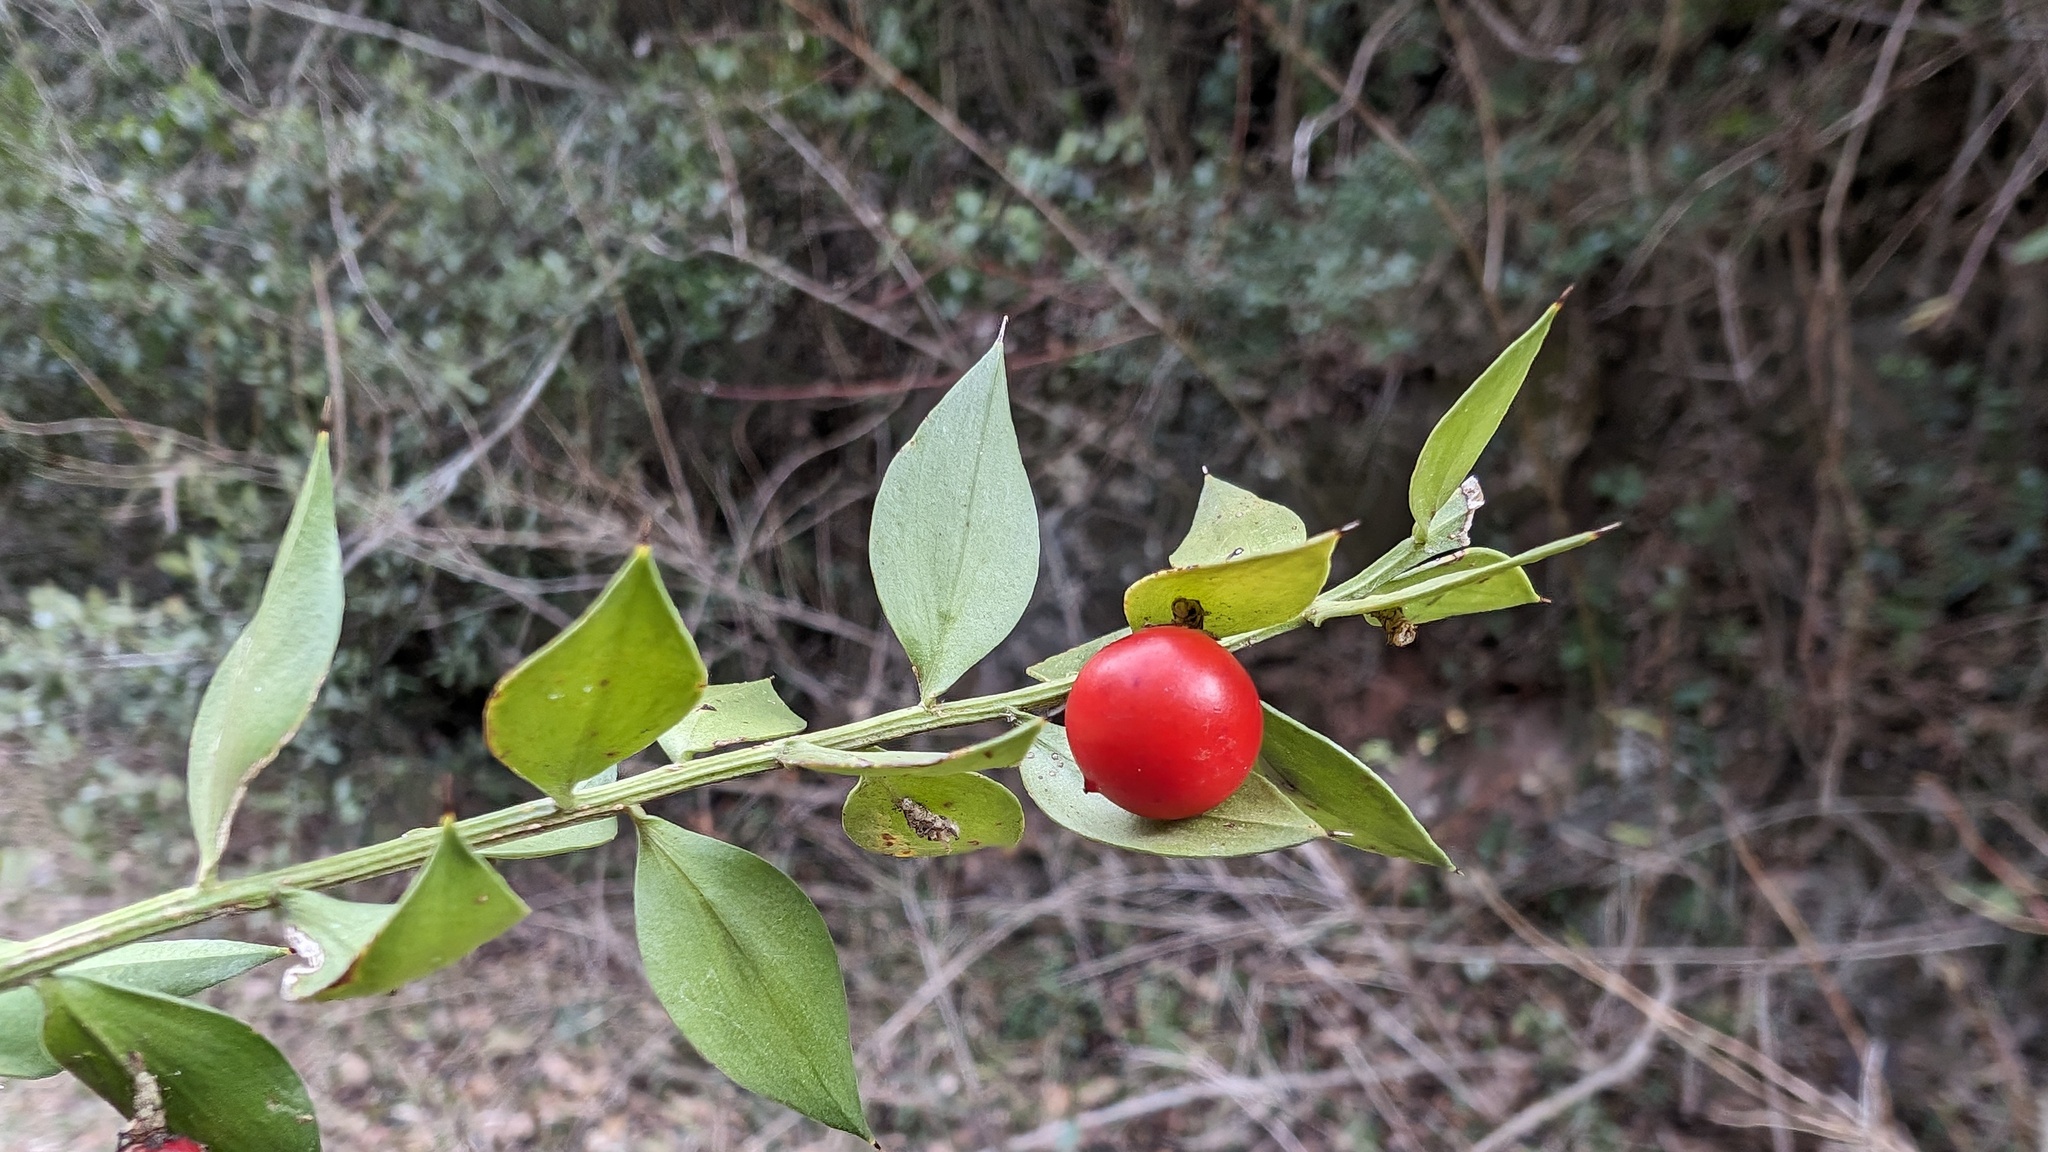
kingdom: Plantae
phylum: Tracheophyta
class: Liliopsida
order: Asparagales
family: Asparagaceae
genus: Ruscus
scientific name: Ruscus aculeatus
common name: Butcher's-broom
